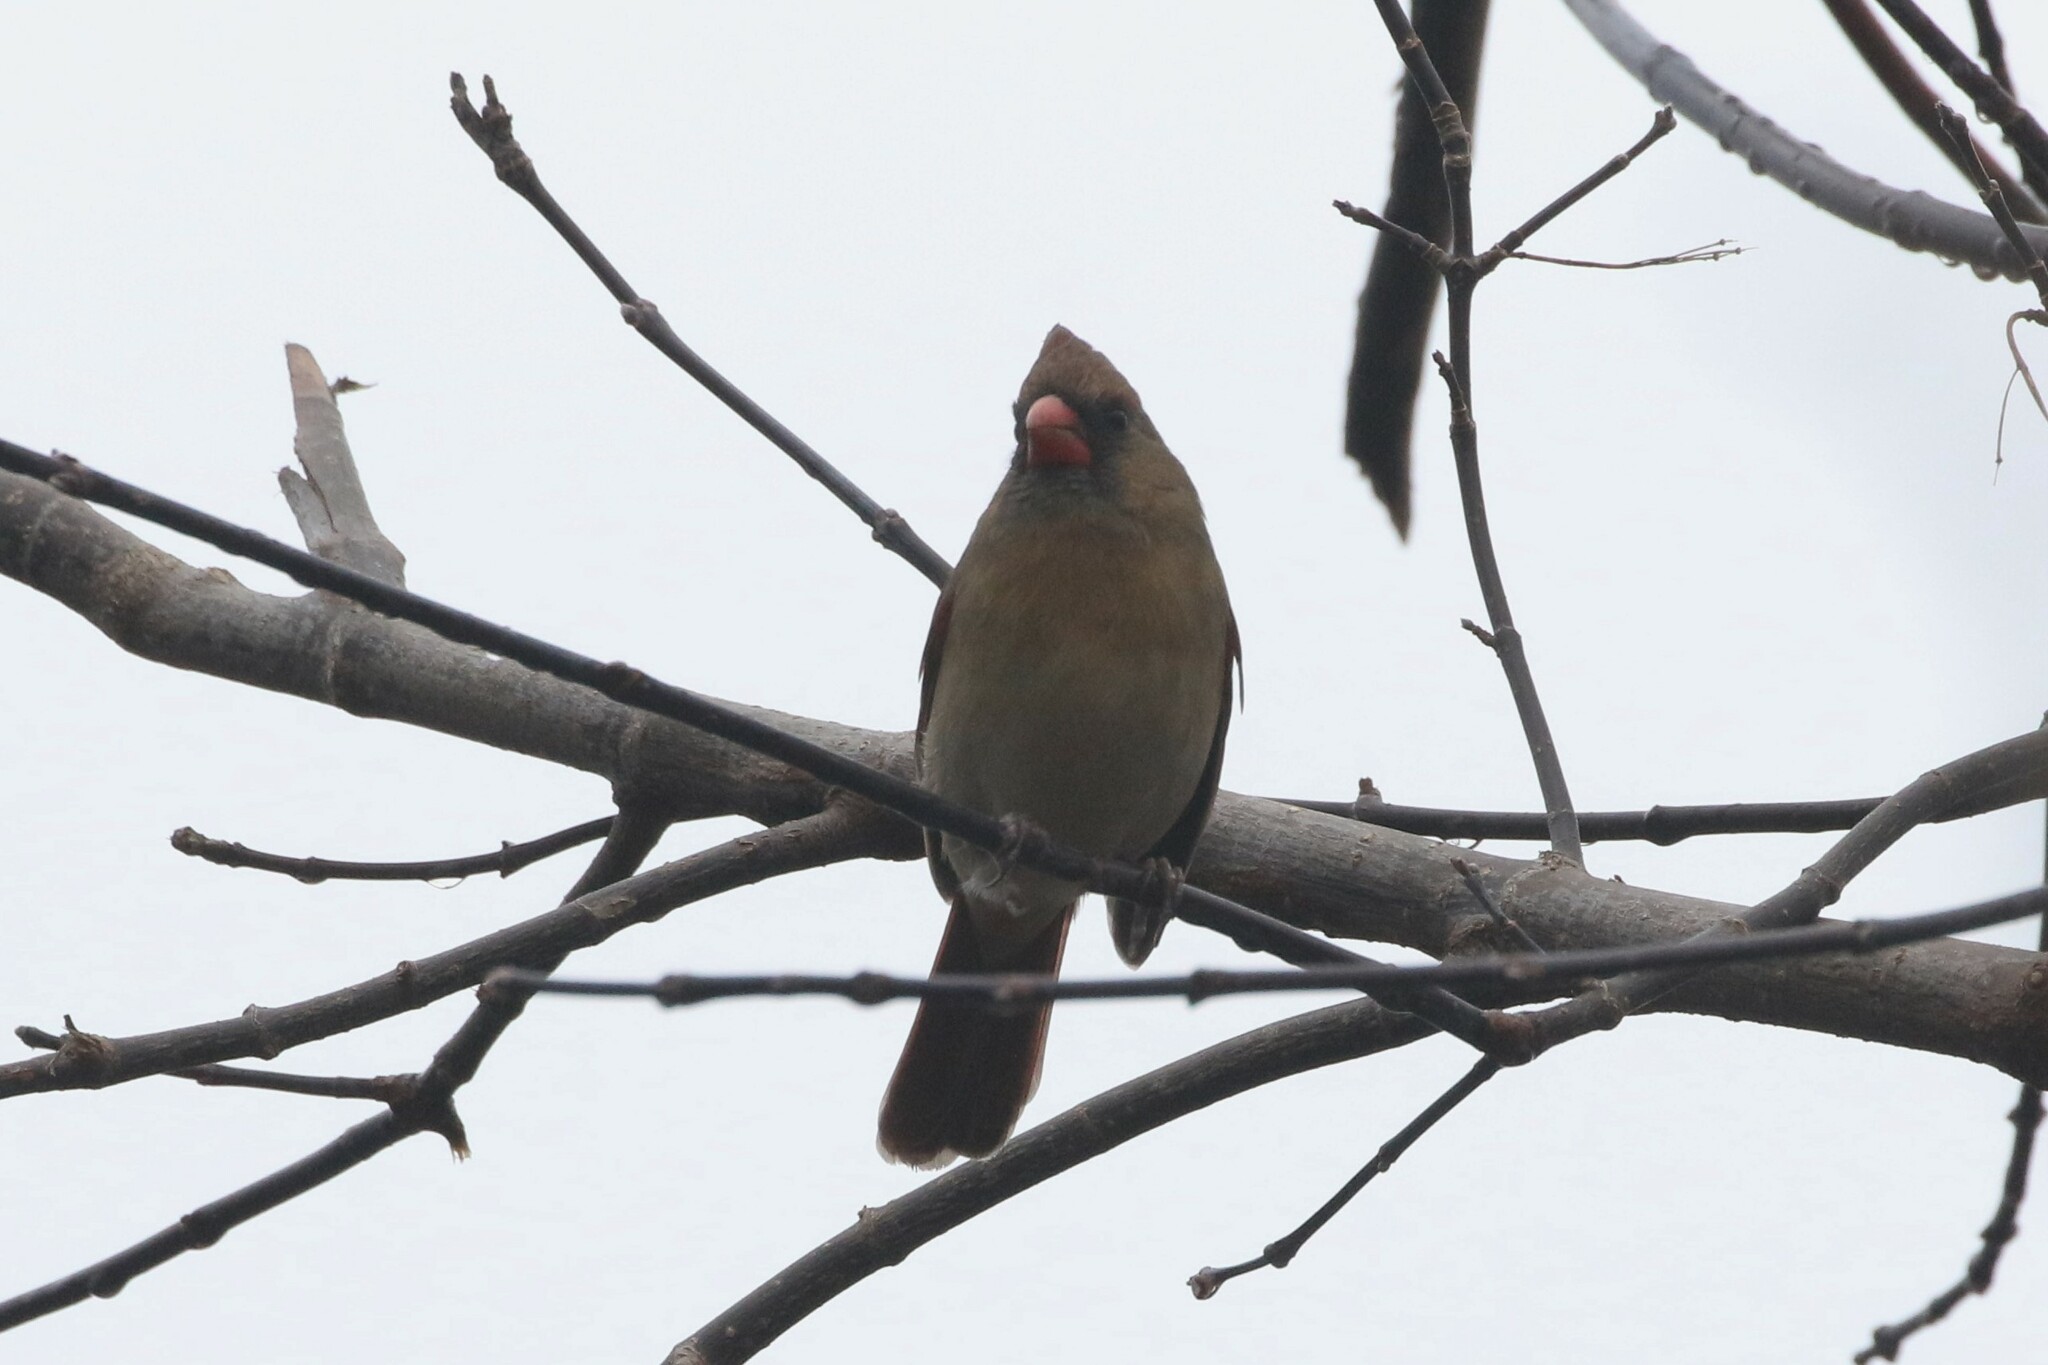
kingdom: Animalia
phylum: Chordata
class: Aves
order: Passeriformes
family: Cardinalidae
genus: Cardinalis
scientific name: Cardinalis cardinalis
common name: Northern cardinal
